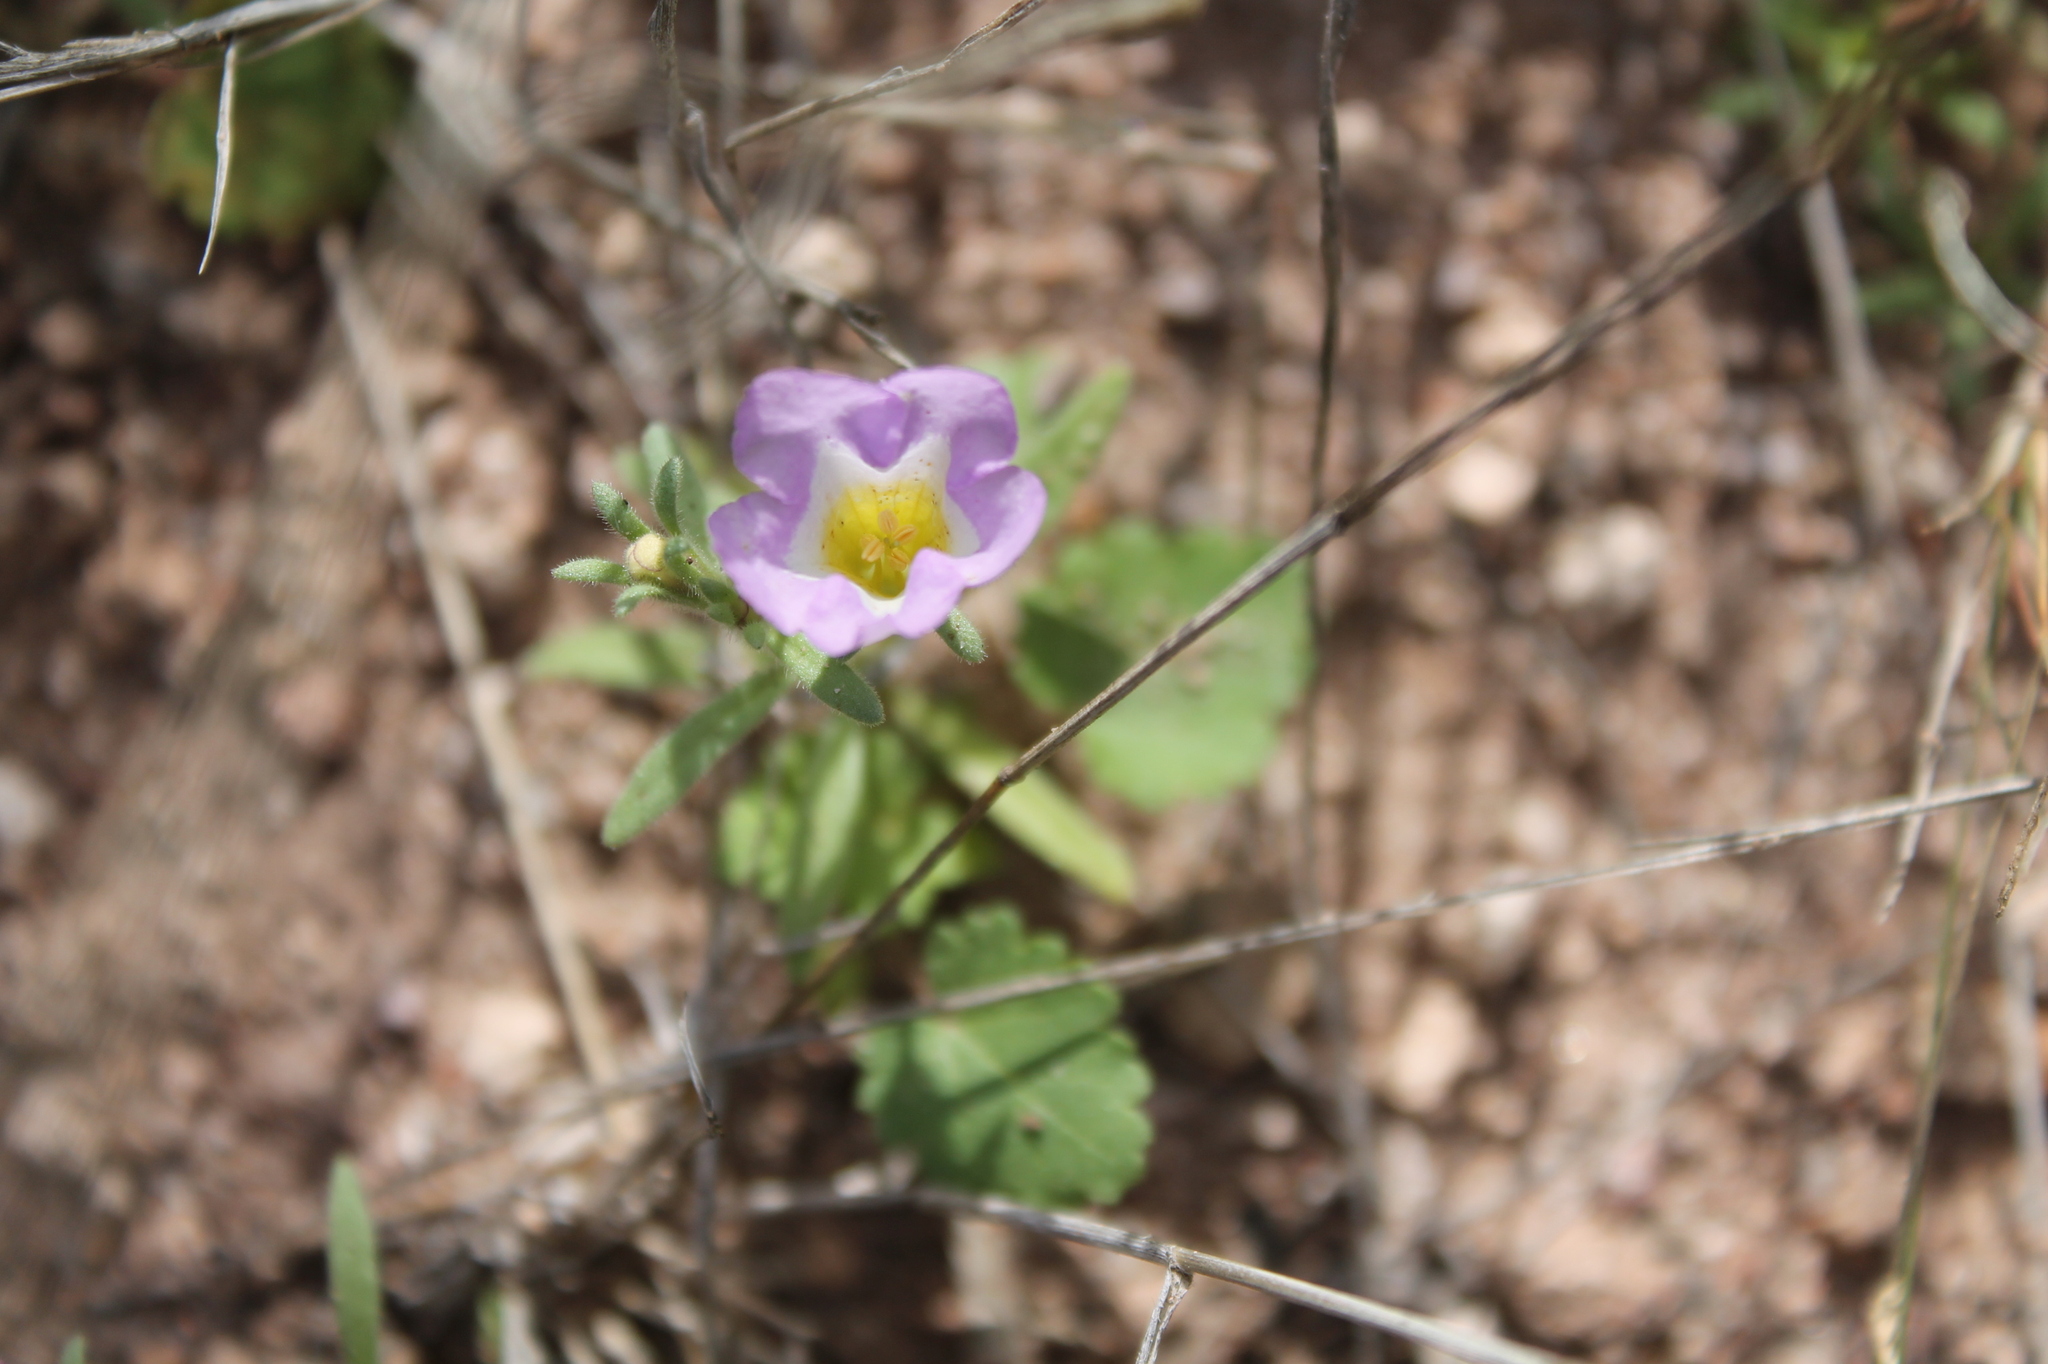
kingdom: Plantae
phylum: Tracheophyta
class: Magnoliopsida
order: Boraginales
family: Namaceae
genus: Nama
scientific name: Nama hispida
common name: Bristly nama
